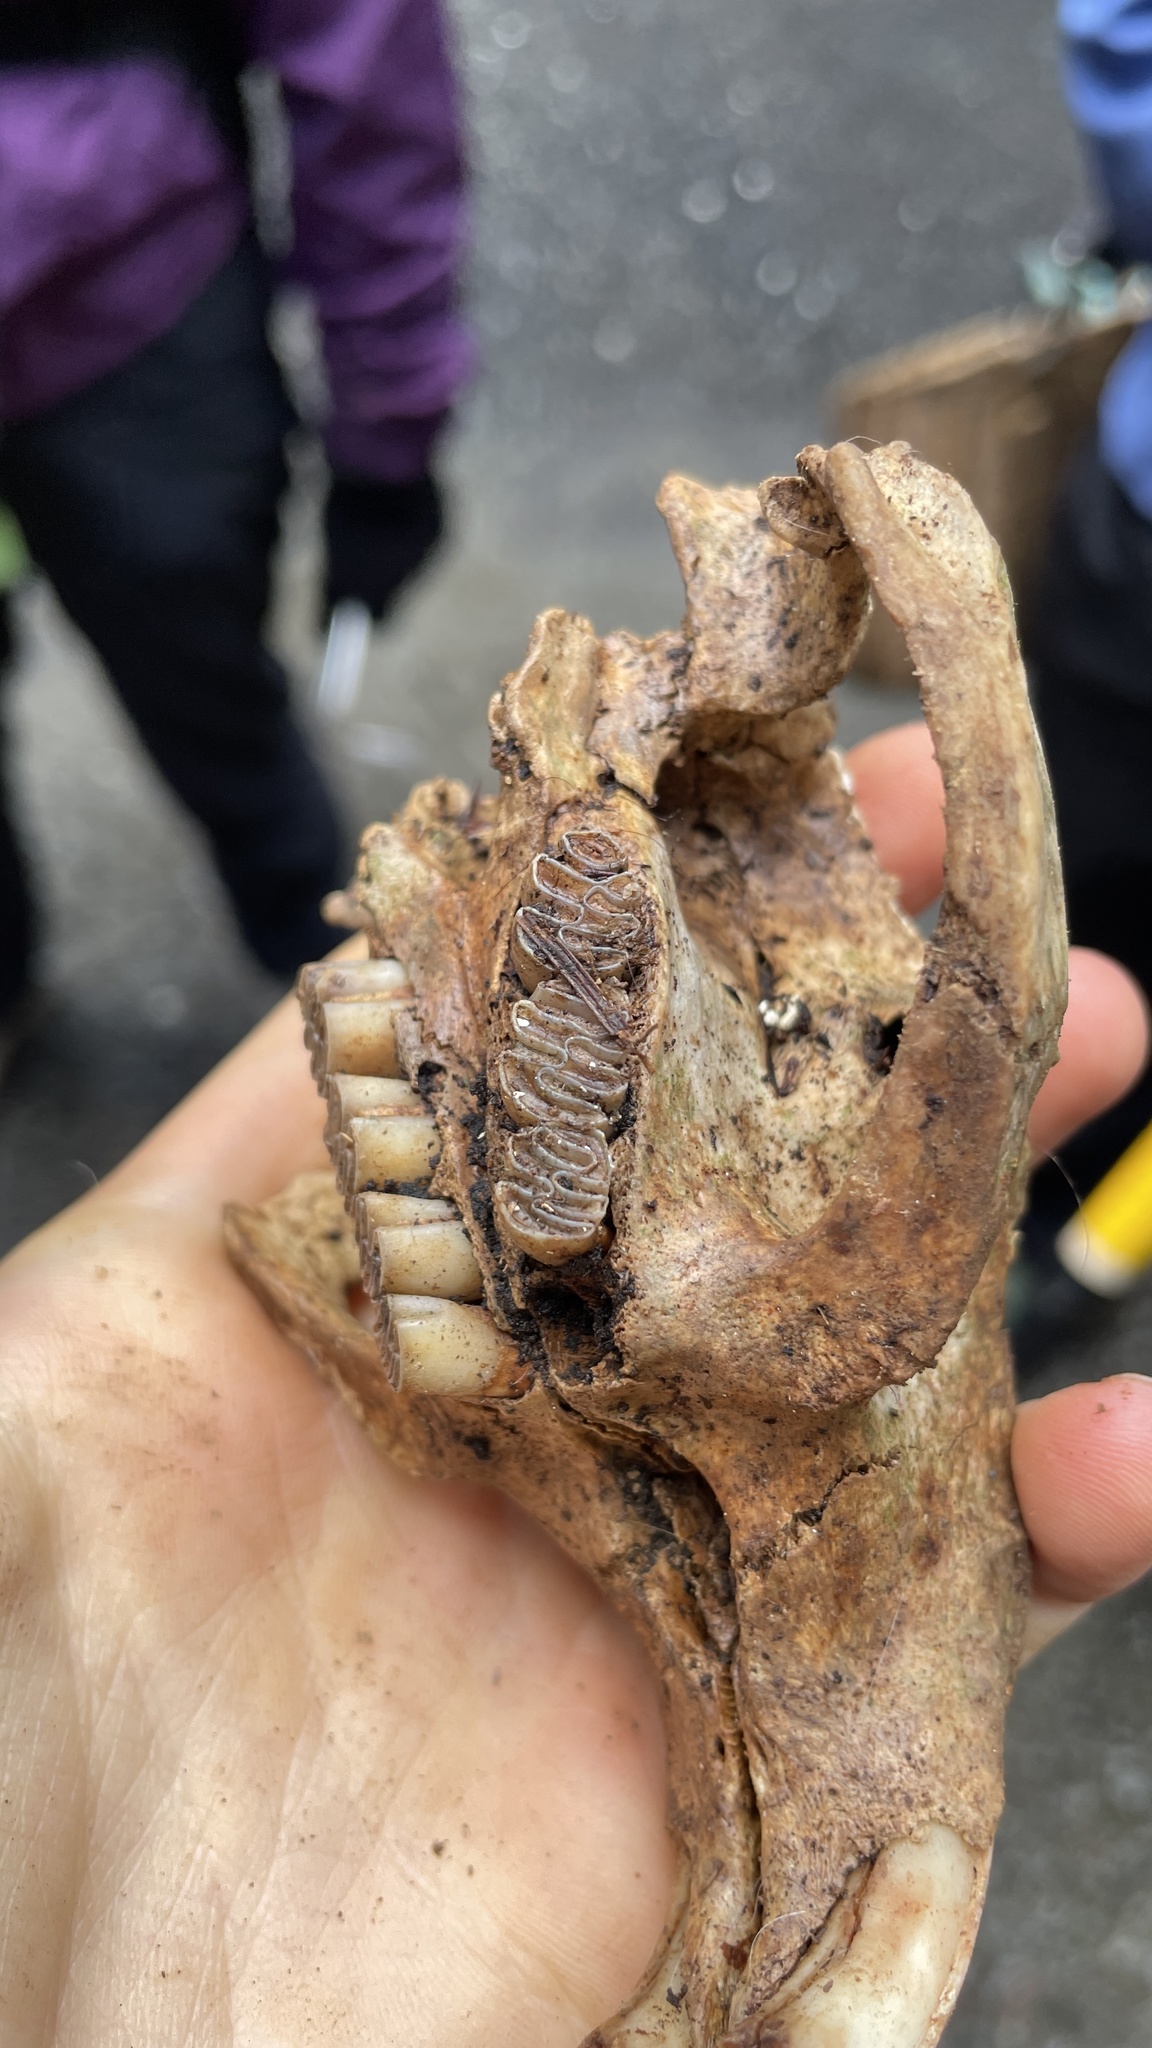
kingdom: Animalia
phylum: Chordata
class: Mammalia
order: Rodentia
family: Myocastoridae
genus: Myocastor
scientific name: Myocastor coypus
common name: Coypu
